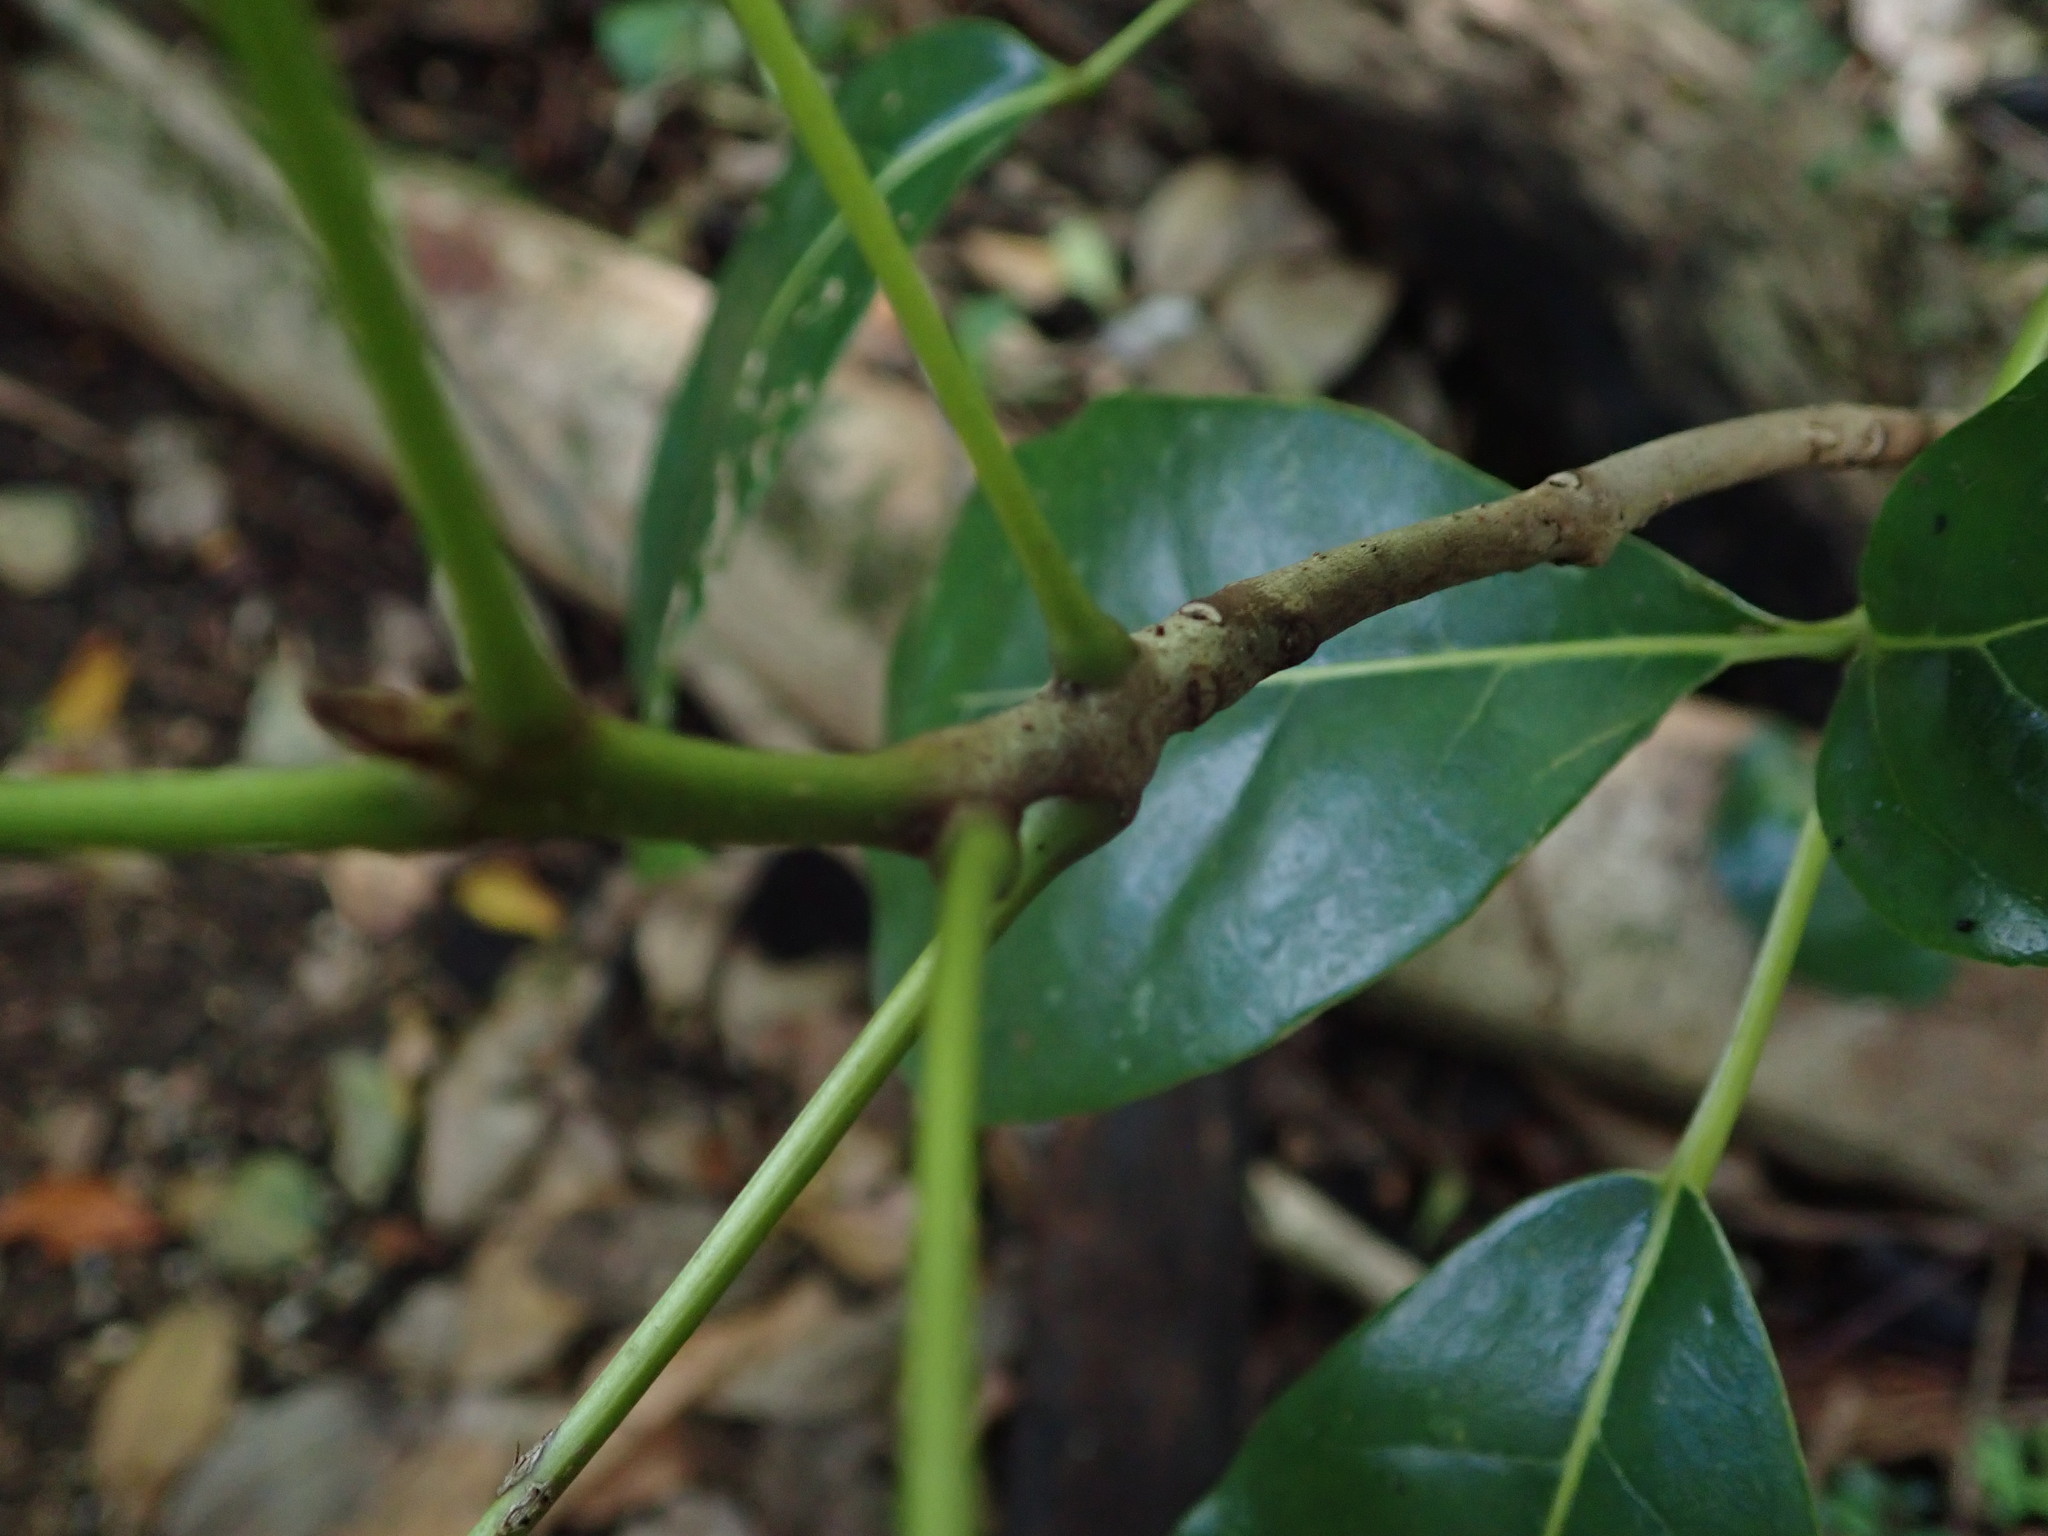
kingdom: Plantae
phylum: Tracheophyta
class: Magnoliopsida
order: Lamiales
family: Bignoniaceae
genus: Tabebuia
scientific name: Tabebuia heterophylla
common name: White cedar
